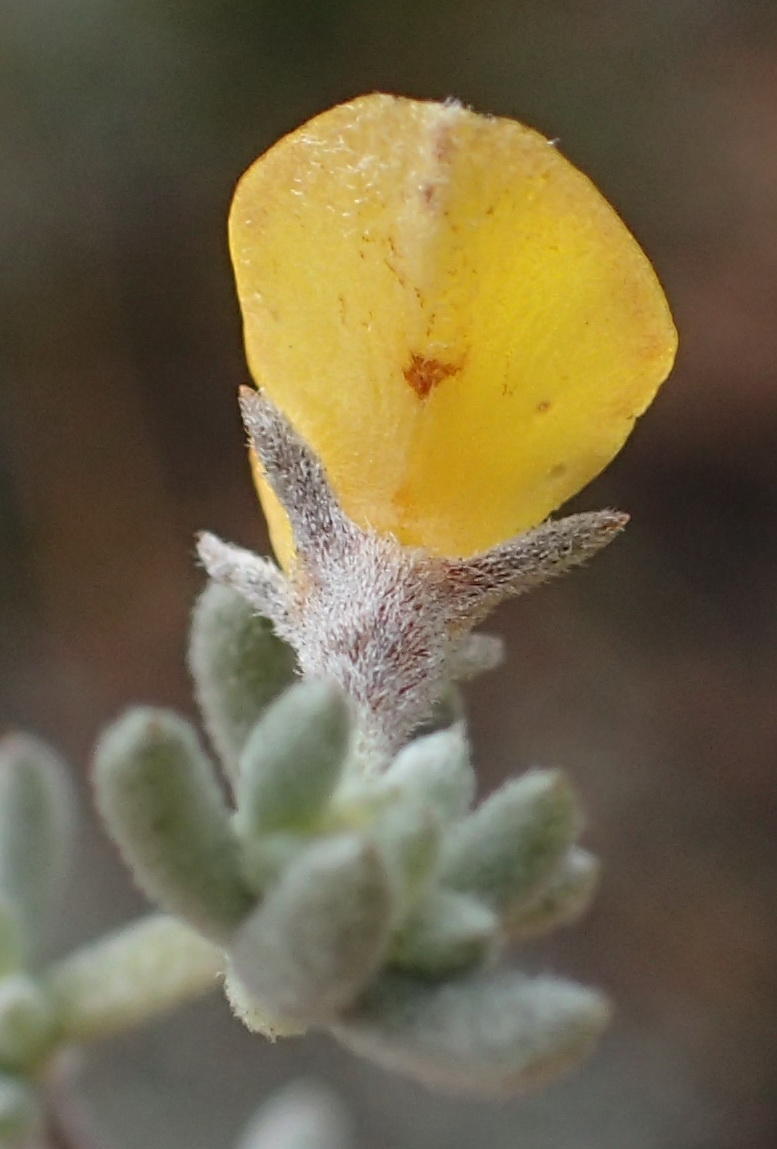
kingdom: Plantae
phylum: Tracheophyta
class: Magnoliopsida
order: Fabales
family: Fabaceae
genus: Aspalathus
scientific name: Aspalathus digitifolia
